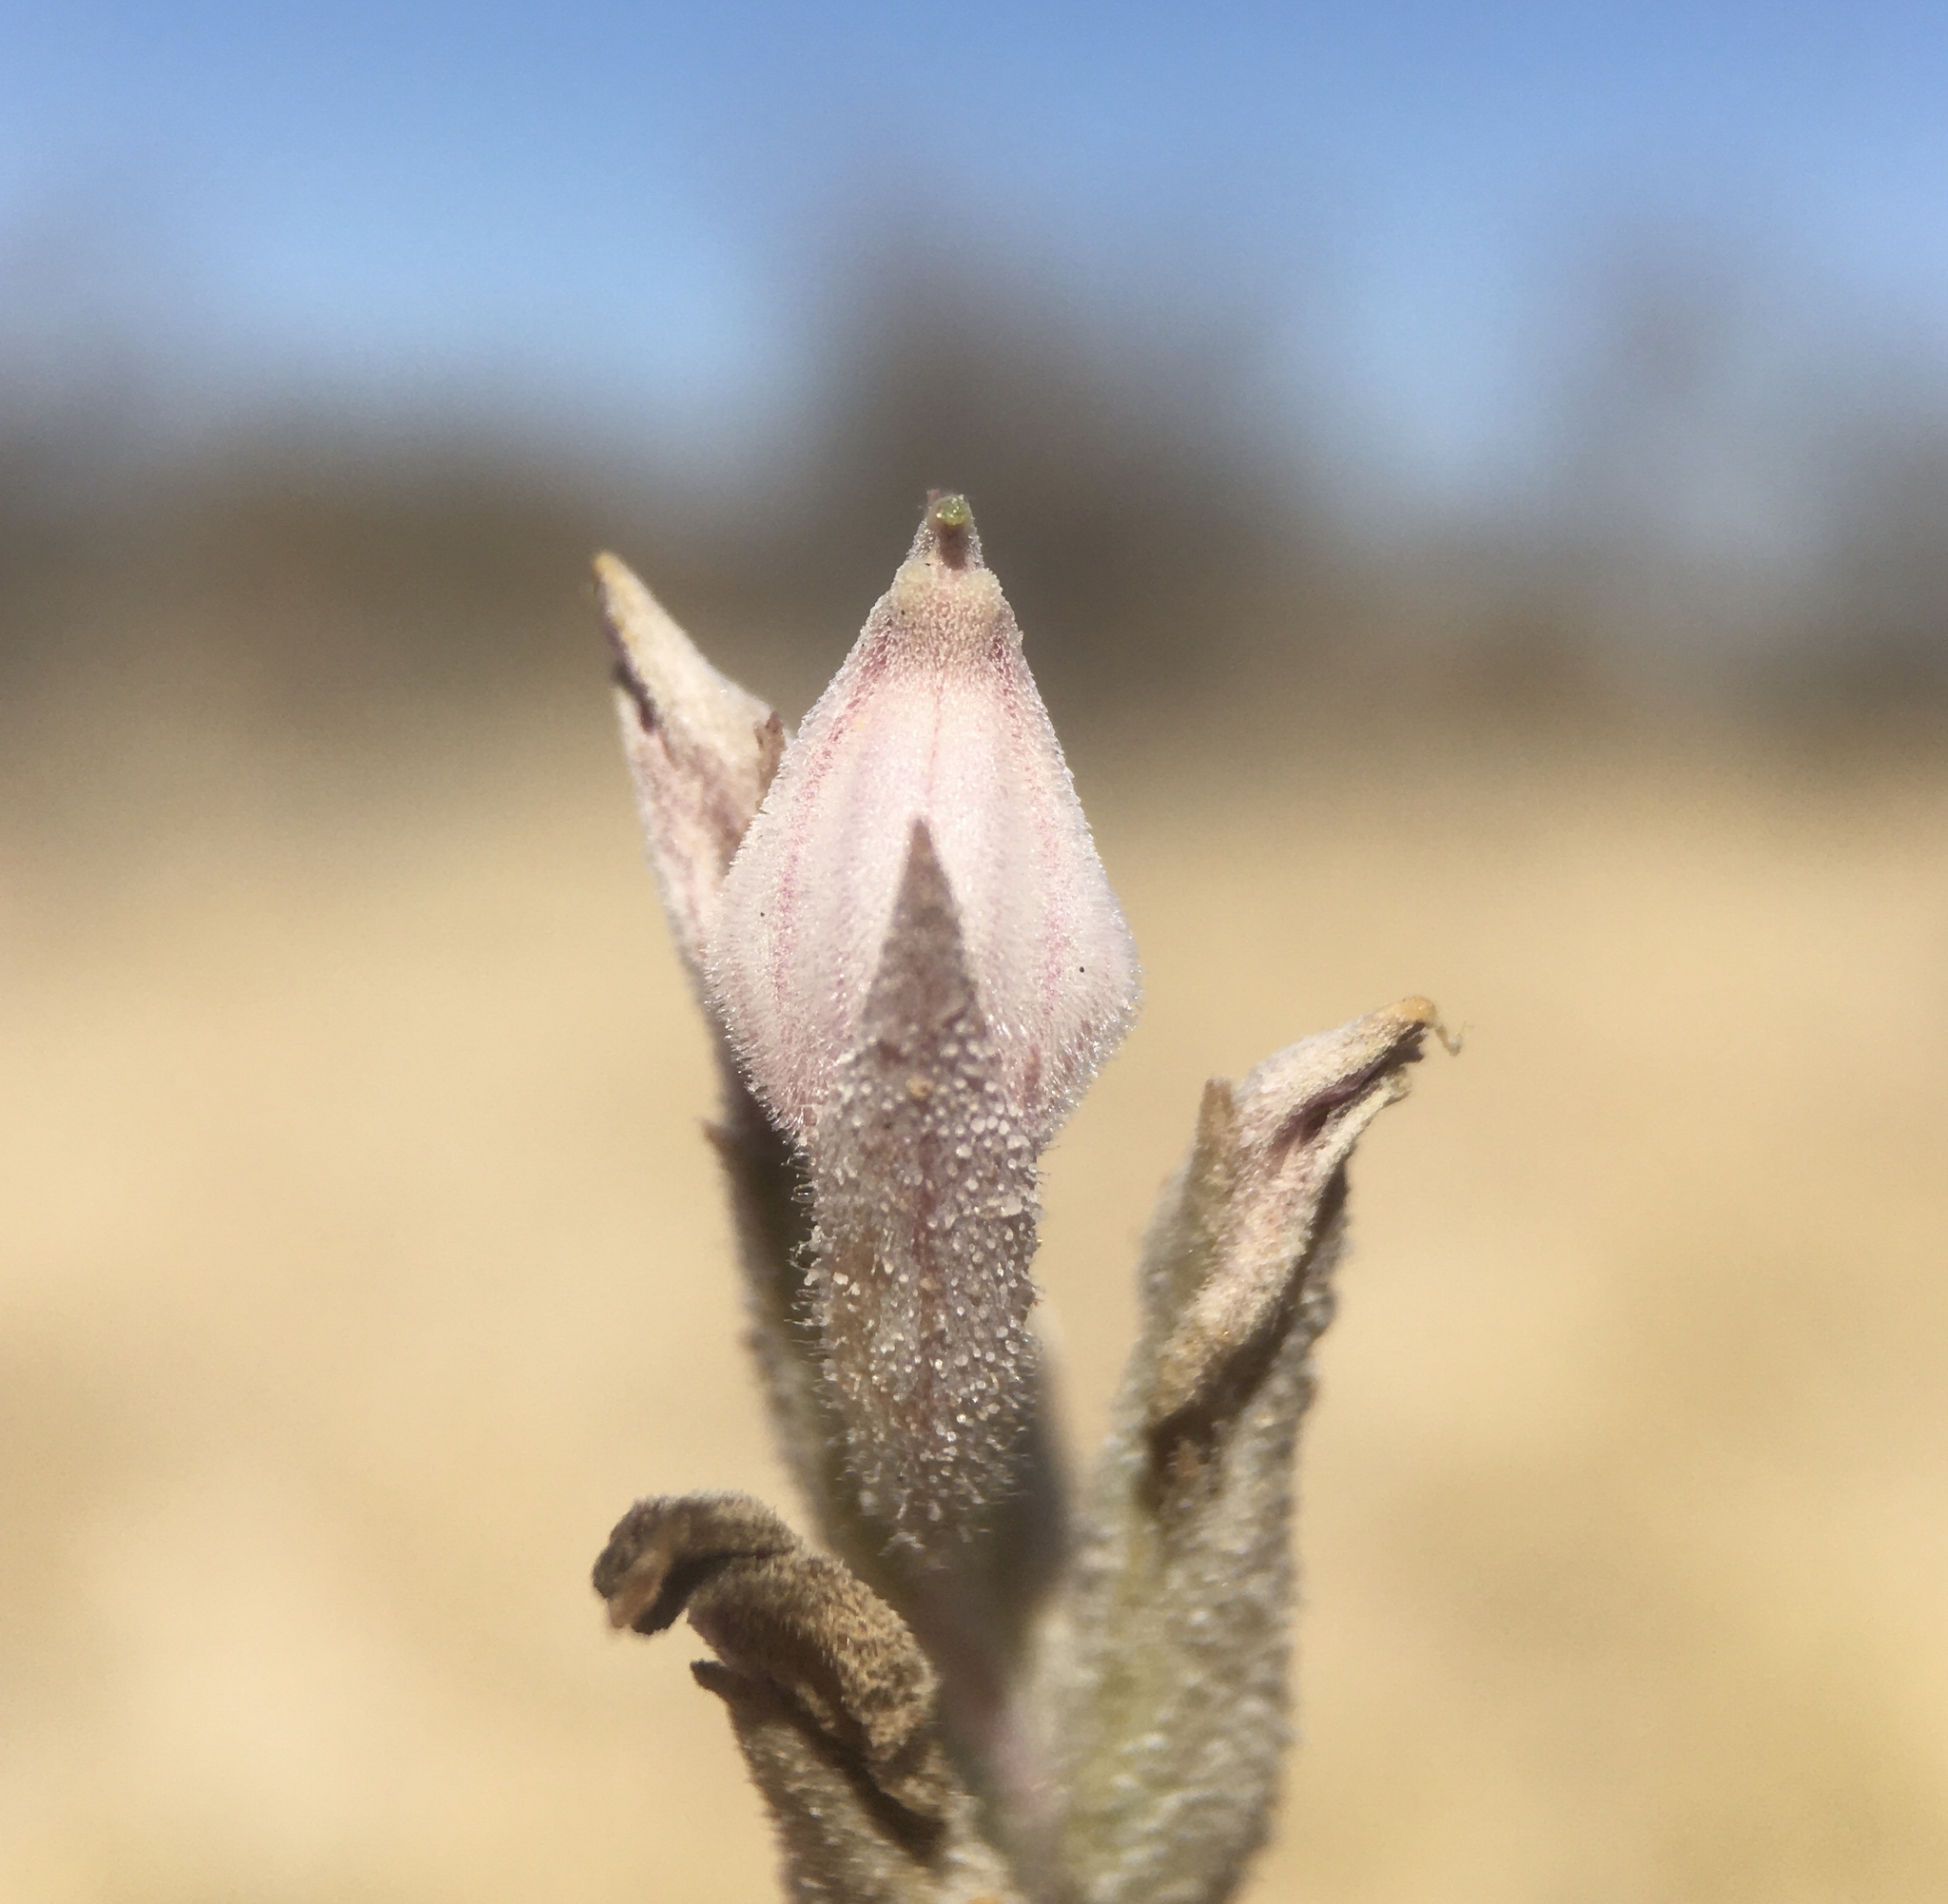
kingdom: Plantae
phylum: Tracheophyta
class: Magnoliopsida
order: Lamiales
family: Orobanchaceae
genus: Chloropyron
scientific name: Chloropyron tecopense
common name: Tecopa salty bird's-beak
